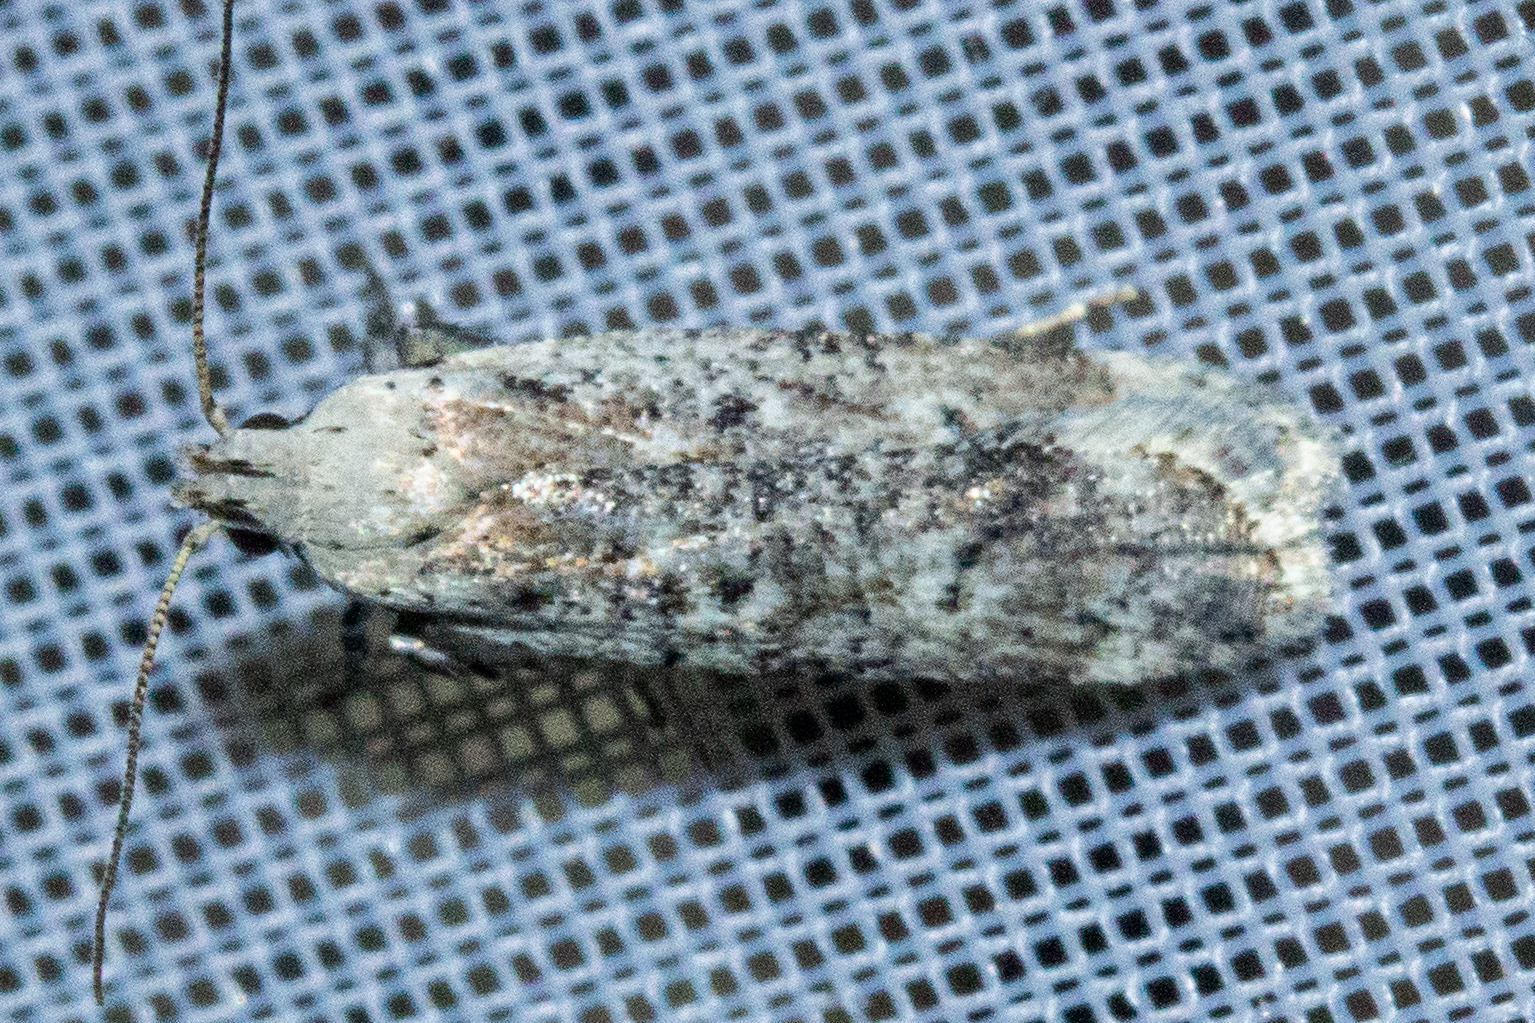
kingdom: Animalia
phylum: Arthropoda
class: Insecta
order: Lepidoptera
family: Gelechiidae
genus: Anisoplaca
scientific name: Anisoplaca achyrota
